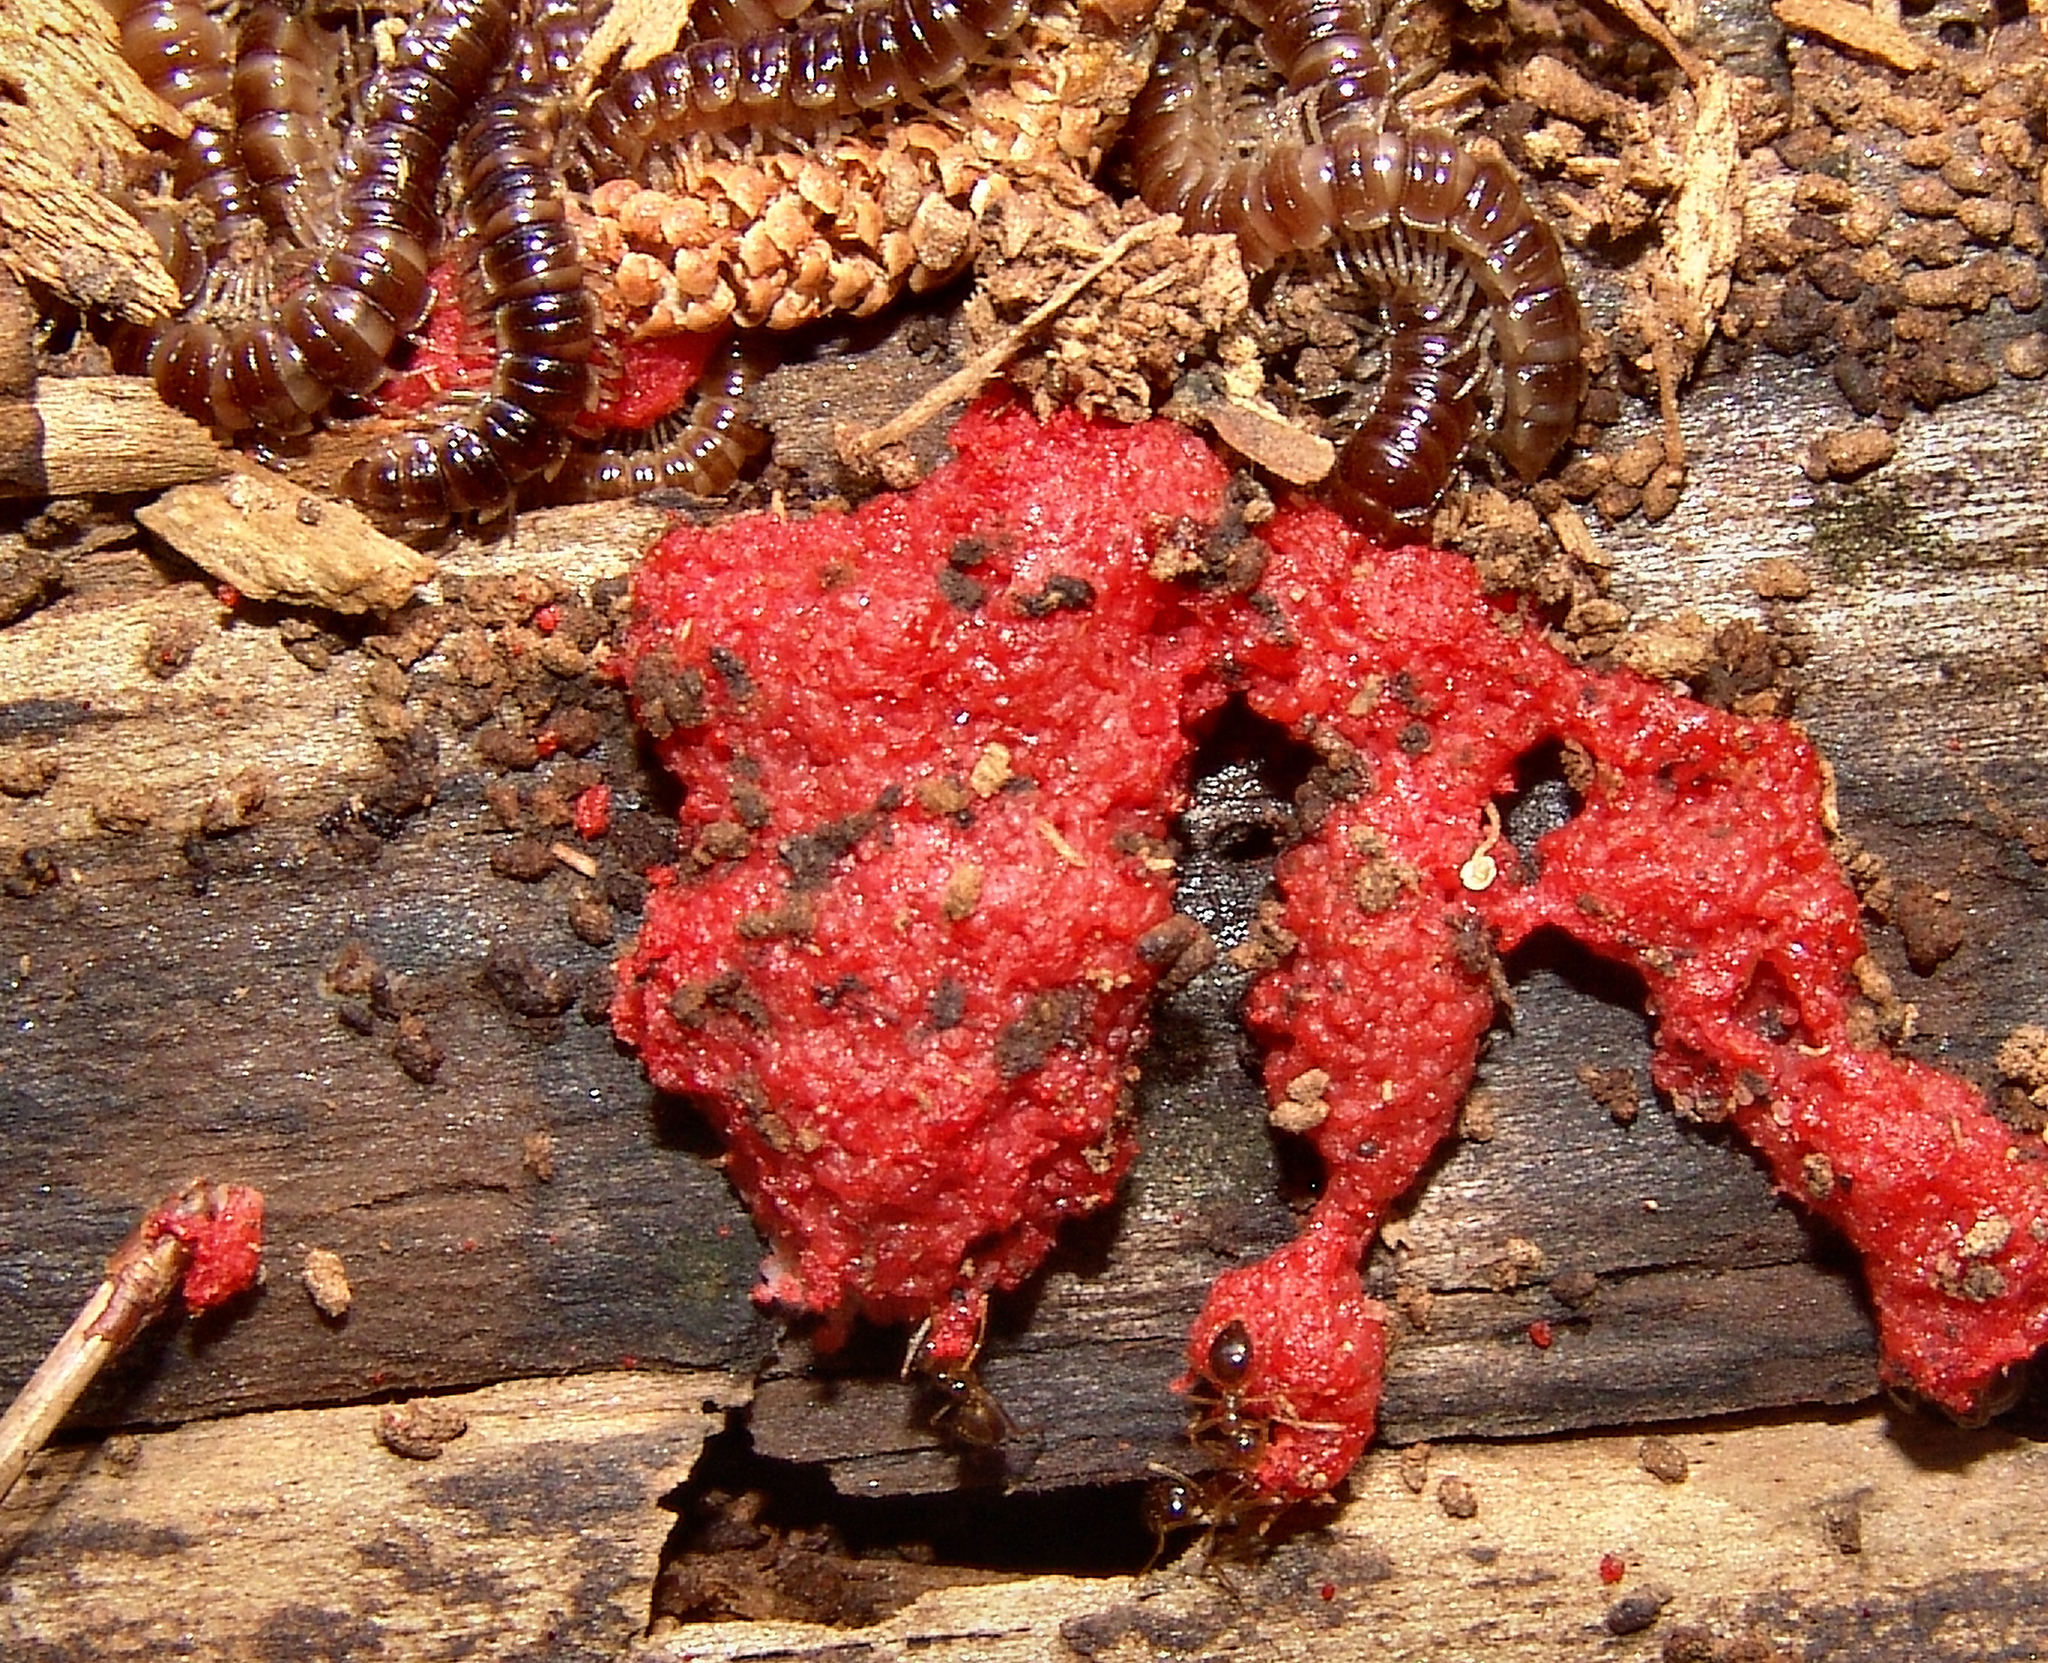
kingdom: Protozoa
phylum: Mycetozoa
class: Myxomycetes
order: Cribrariales
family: Tubiferaceae
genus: Tubifera
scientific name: Tubifera ferruginosa
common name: Red raspberry slime mold
